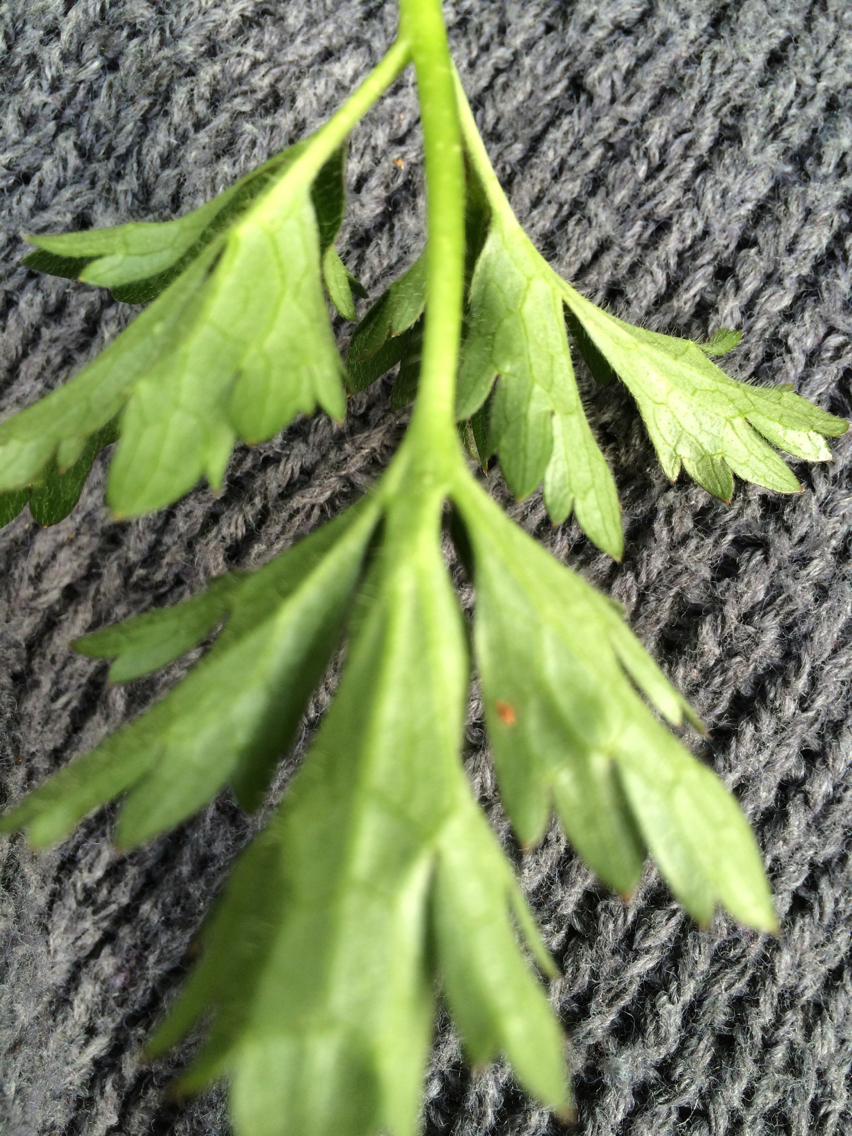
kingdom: Plantae
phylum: Tracheophyta
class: Magnoliopsida
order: Ranunculales
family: Ranunculaceae
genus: Ranunculus
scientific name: Ranunculus repens
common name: Creeping buttercup
